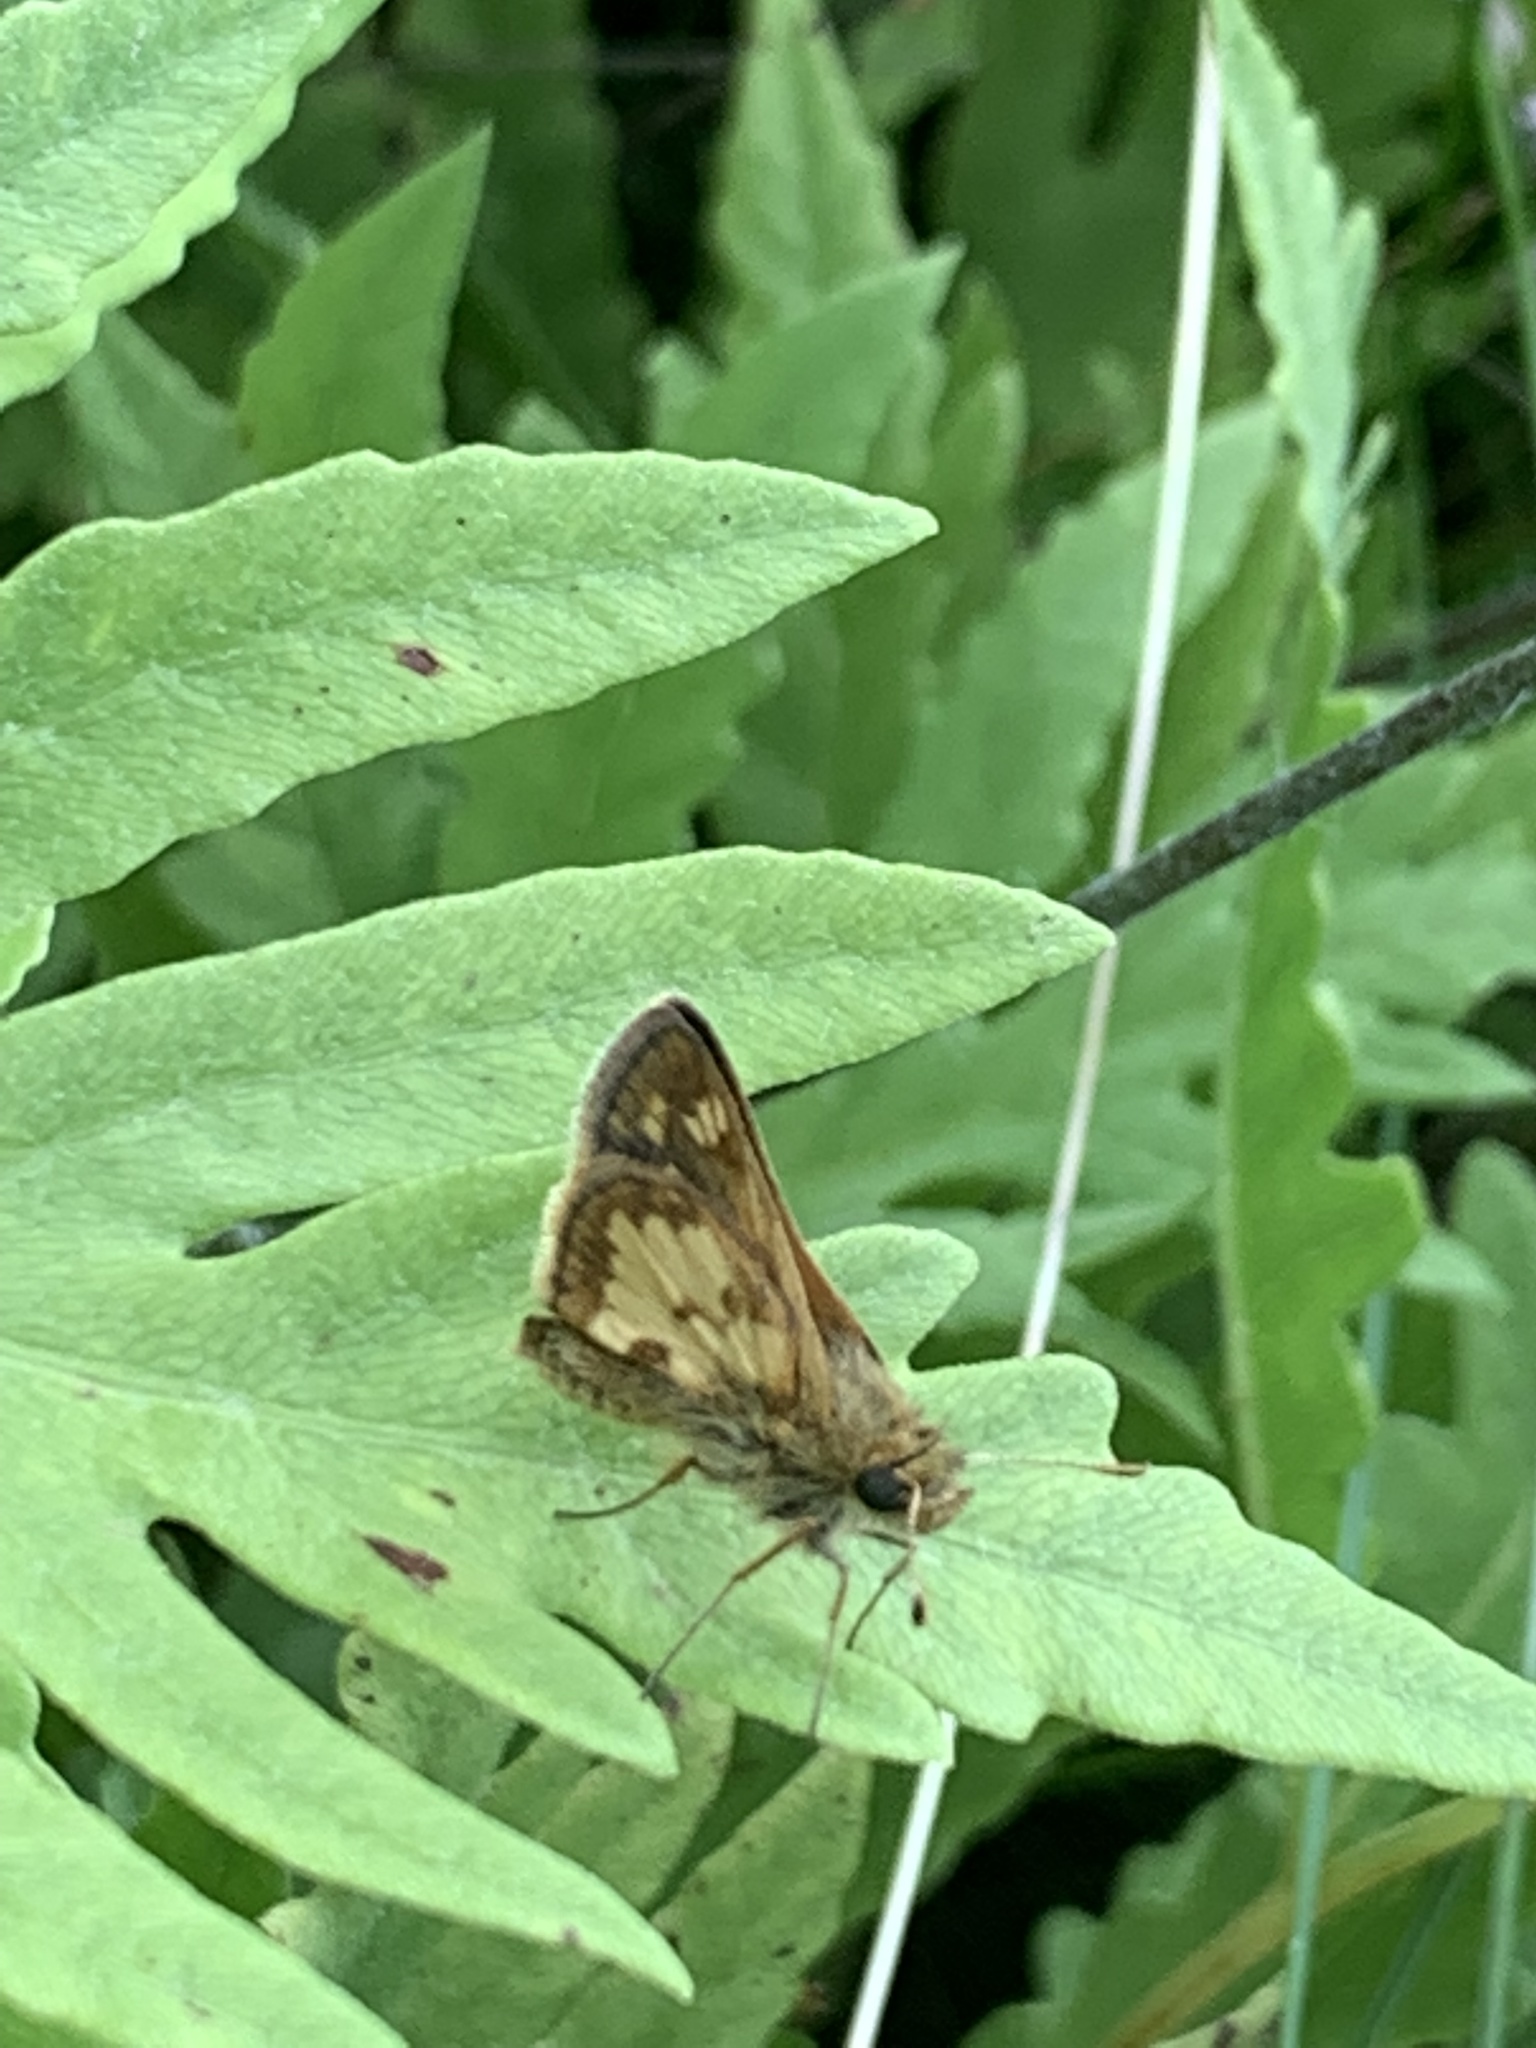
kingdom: Animalia
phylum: Arthropoda
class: Insecta
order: Lepidoptera
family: Hesperiidae
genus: Polites
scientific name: Polites coras
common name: Peck's skipper
